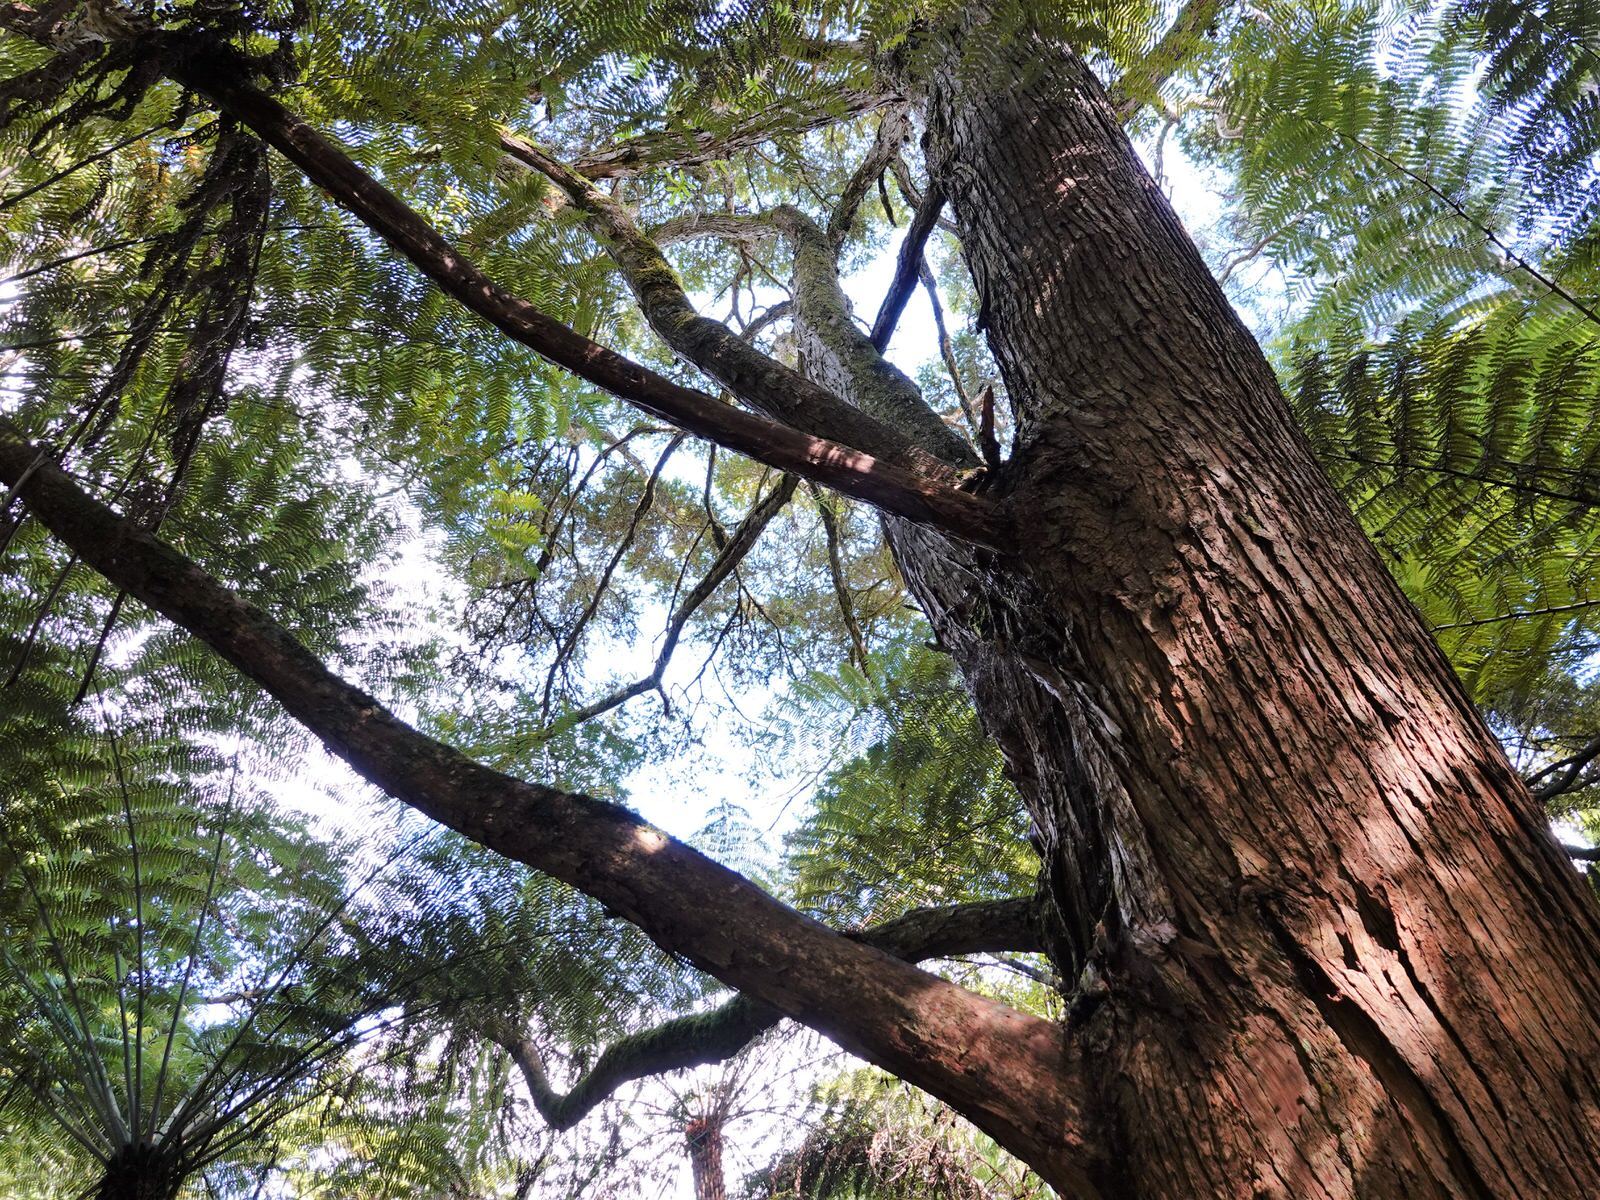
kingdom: Plantae
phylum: Tracheophyta
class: Pinopsida
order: Pinales
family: Podocarpaceae
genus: Podocarpus
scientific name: Podocarpus totara
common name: Totara
